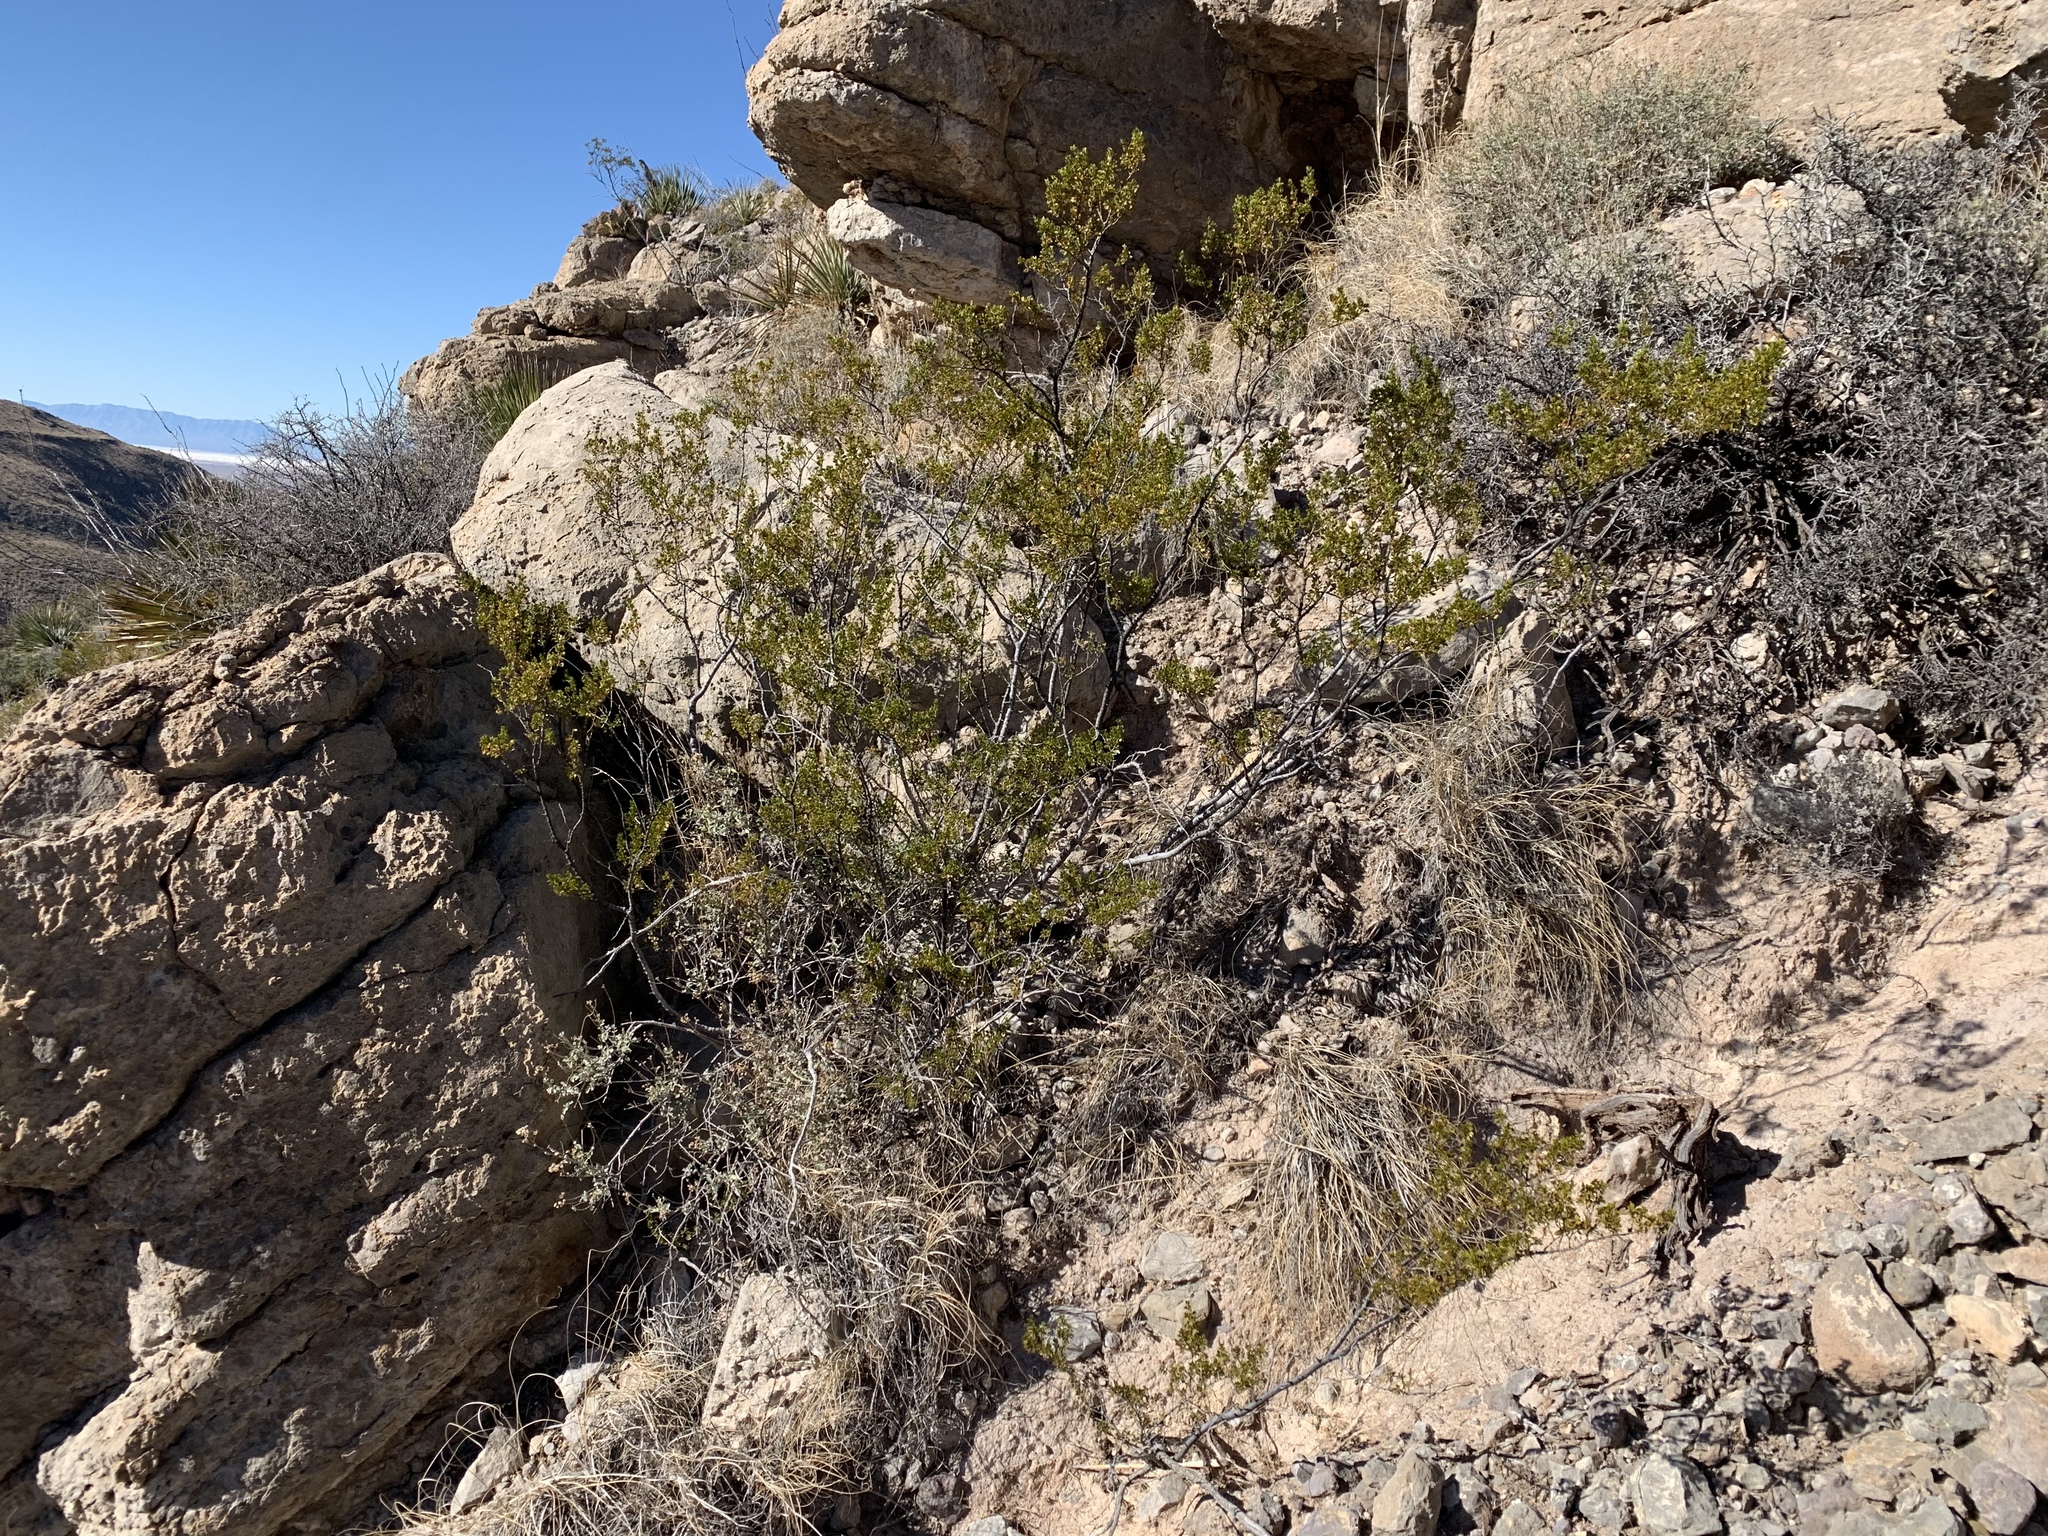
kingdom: Plantae
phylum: Tracheophyta
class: Magnoliopsida
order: Zygophyllales
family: Zygophyllaceae
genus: Larrea
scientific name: Larrea tridentata
